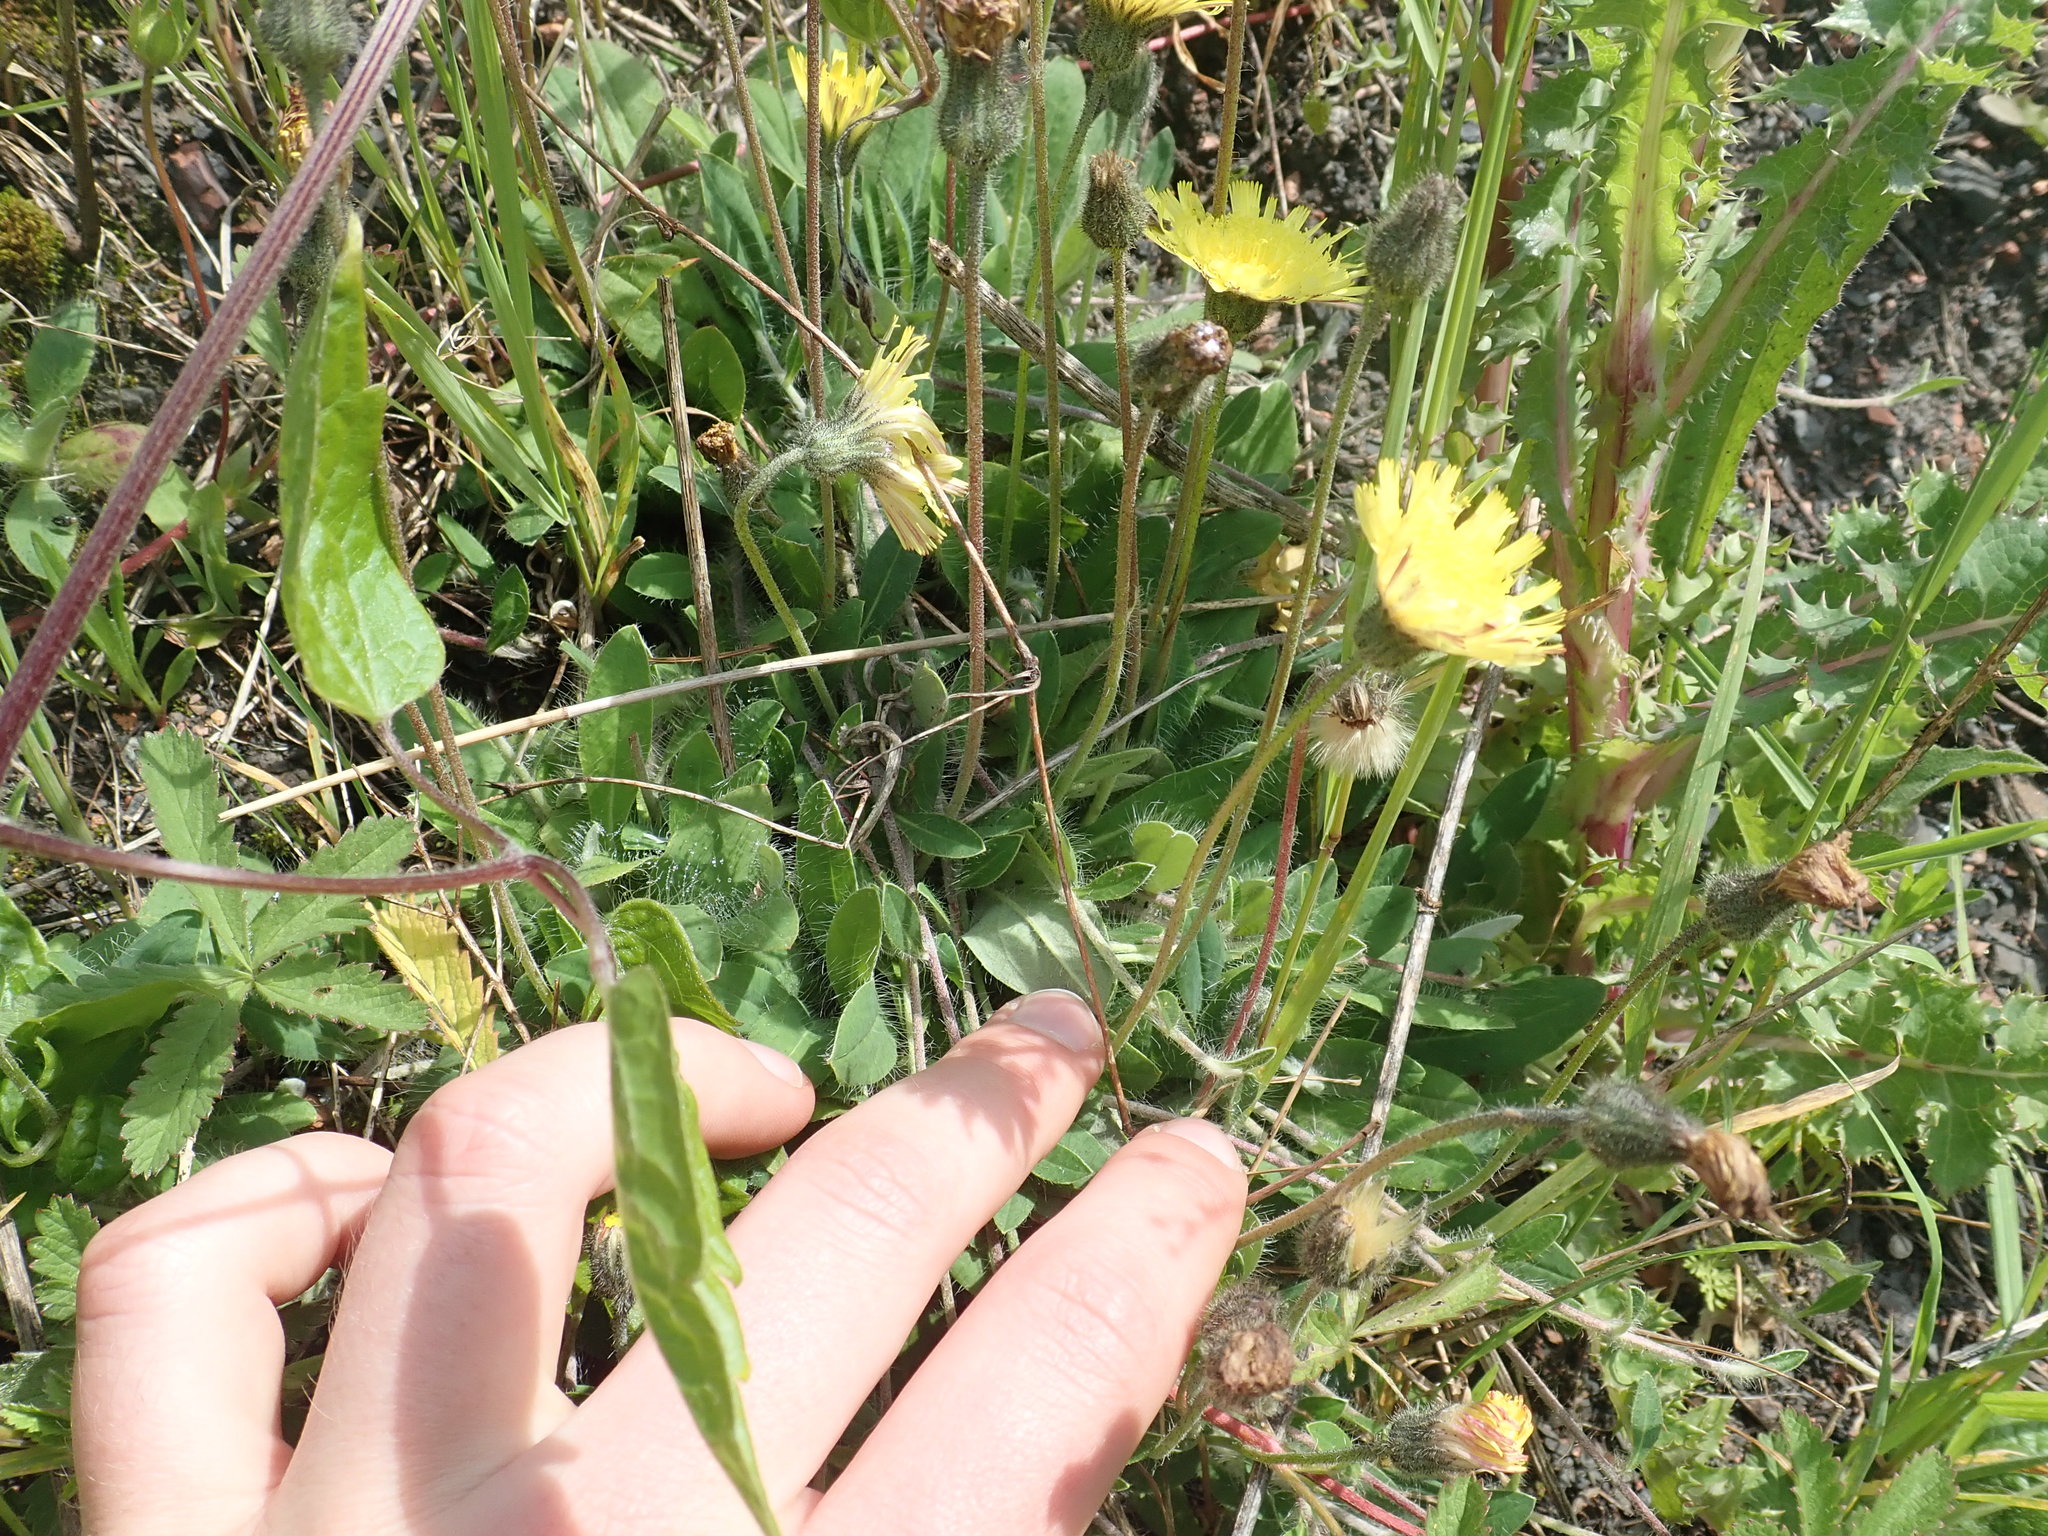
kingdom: Plantae
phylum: Tracheophyta
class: Magnoliopsida
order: Asterales
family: Asteraceae
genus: Pilosella
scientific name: Pilosella officinarum
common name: Mouse-ear hawkweed
